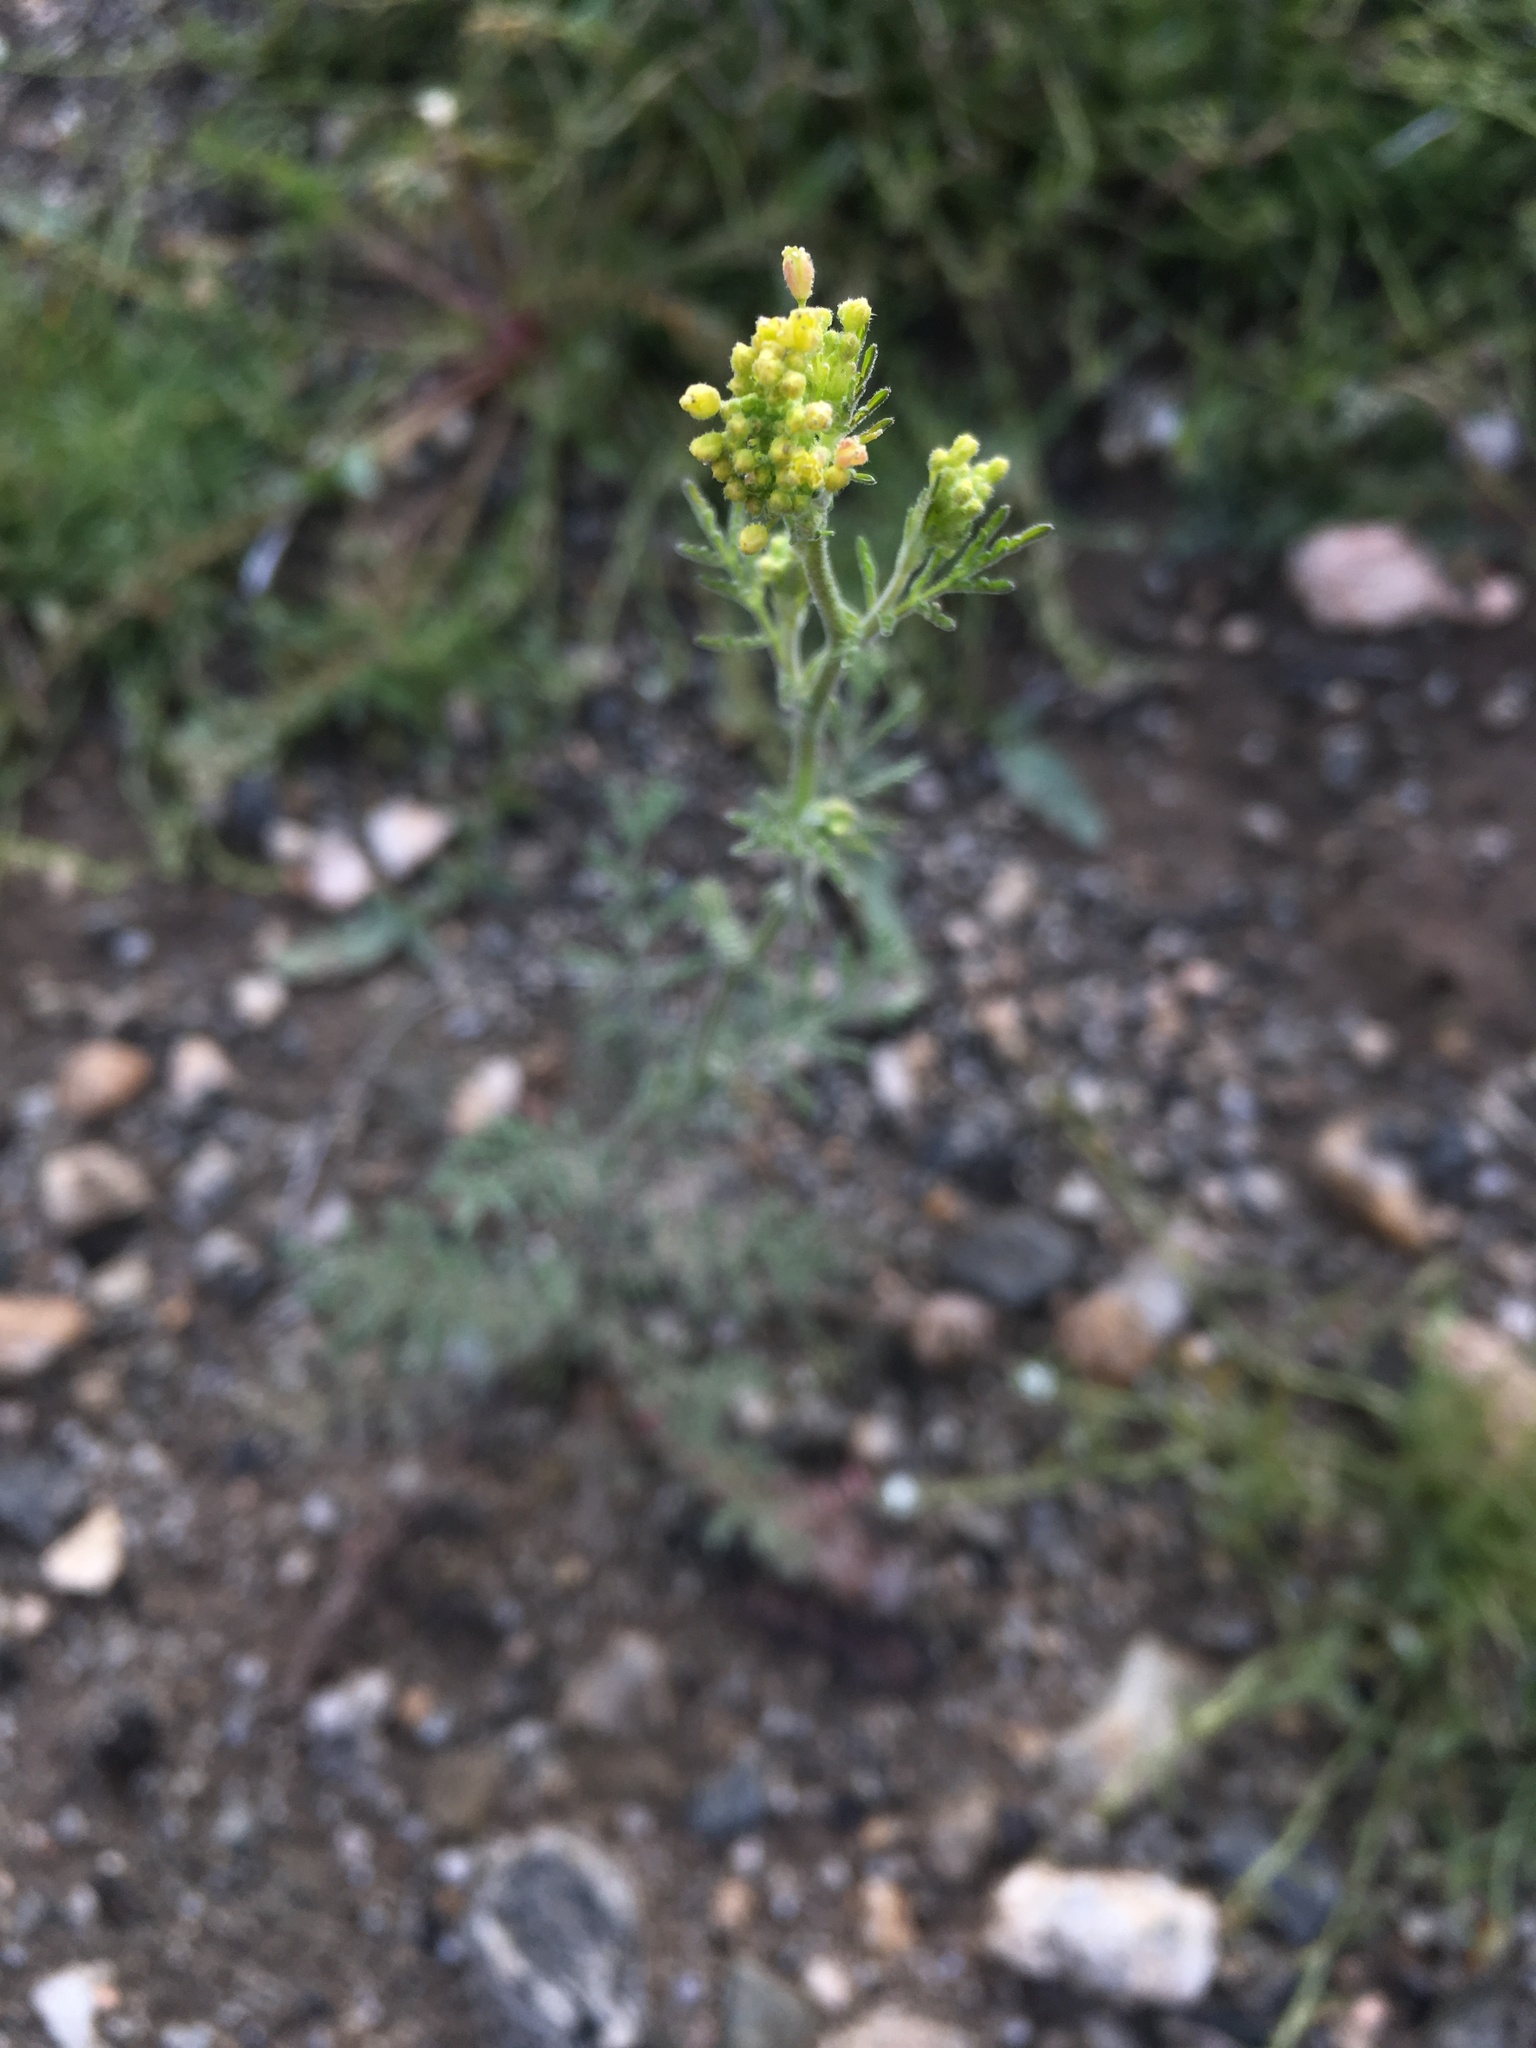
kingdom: Plantae
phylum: Tracheophyta
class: Magnoliopsida
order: Brassicales
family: Brassicaceae
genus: Descurainia
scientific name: Descurainia pinnata
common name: Western tansy mustard
